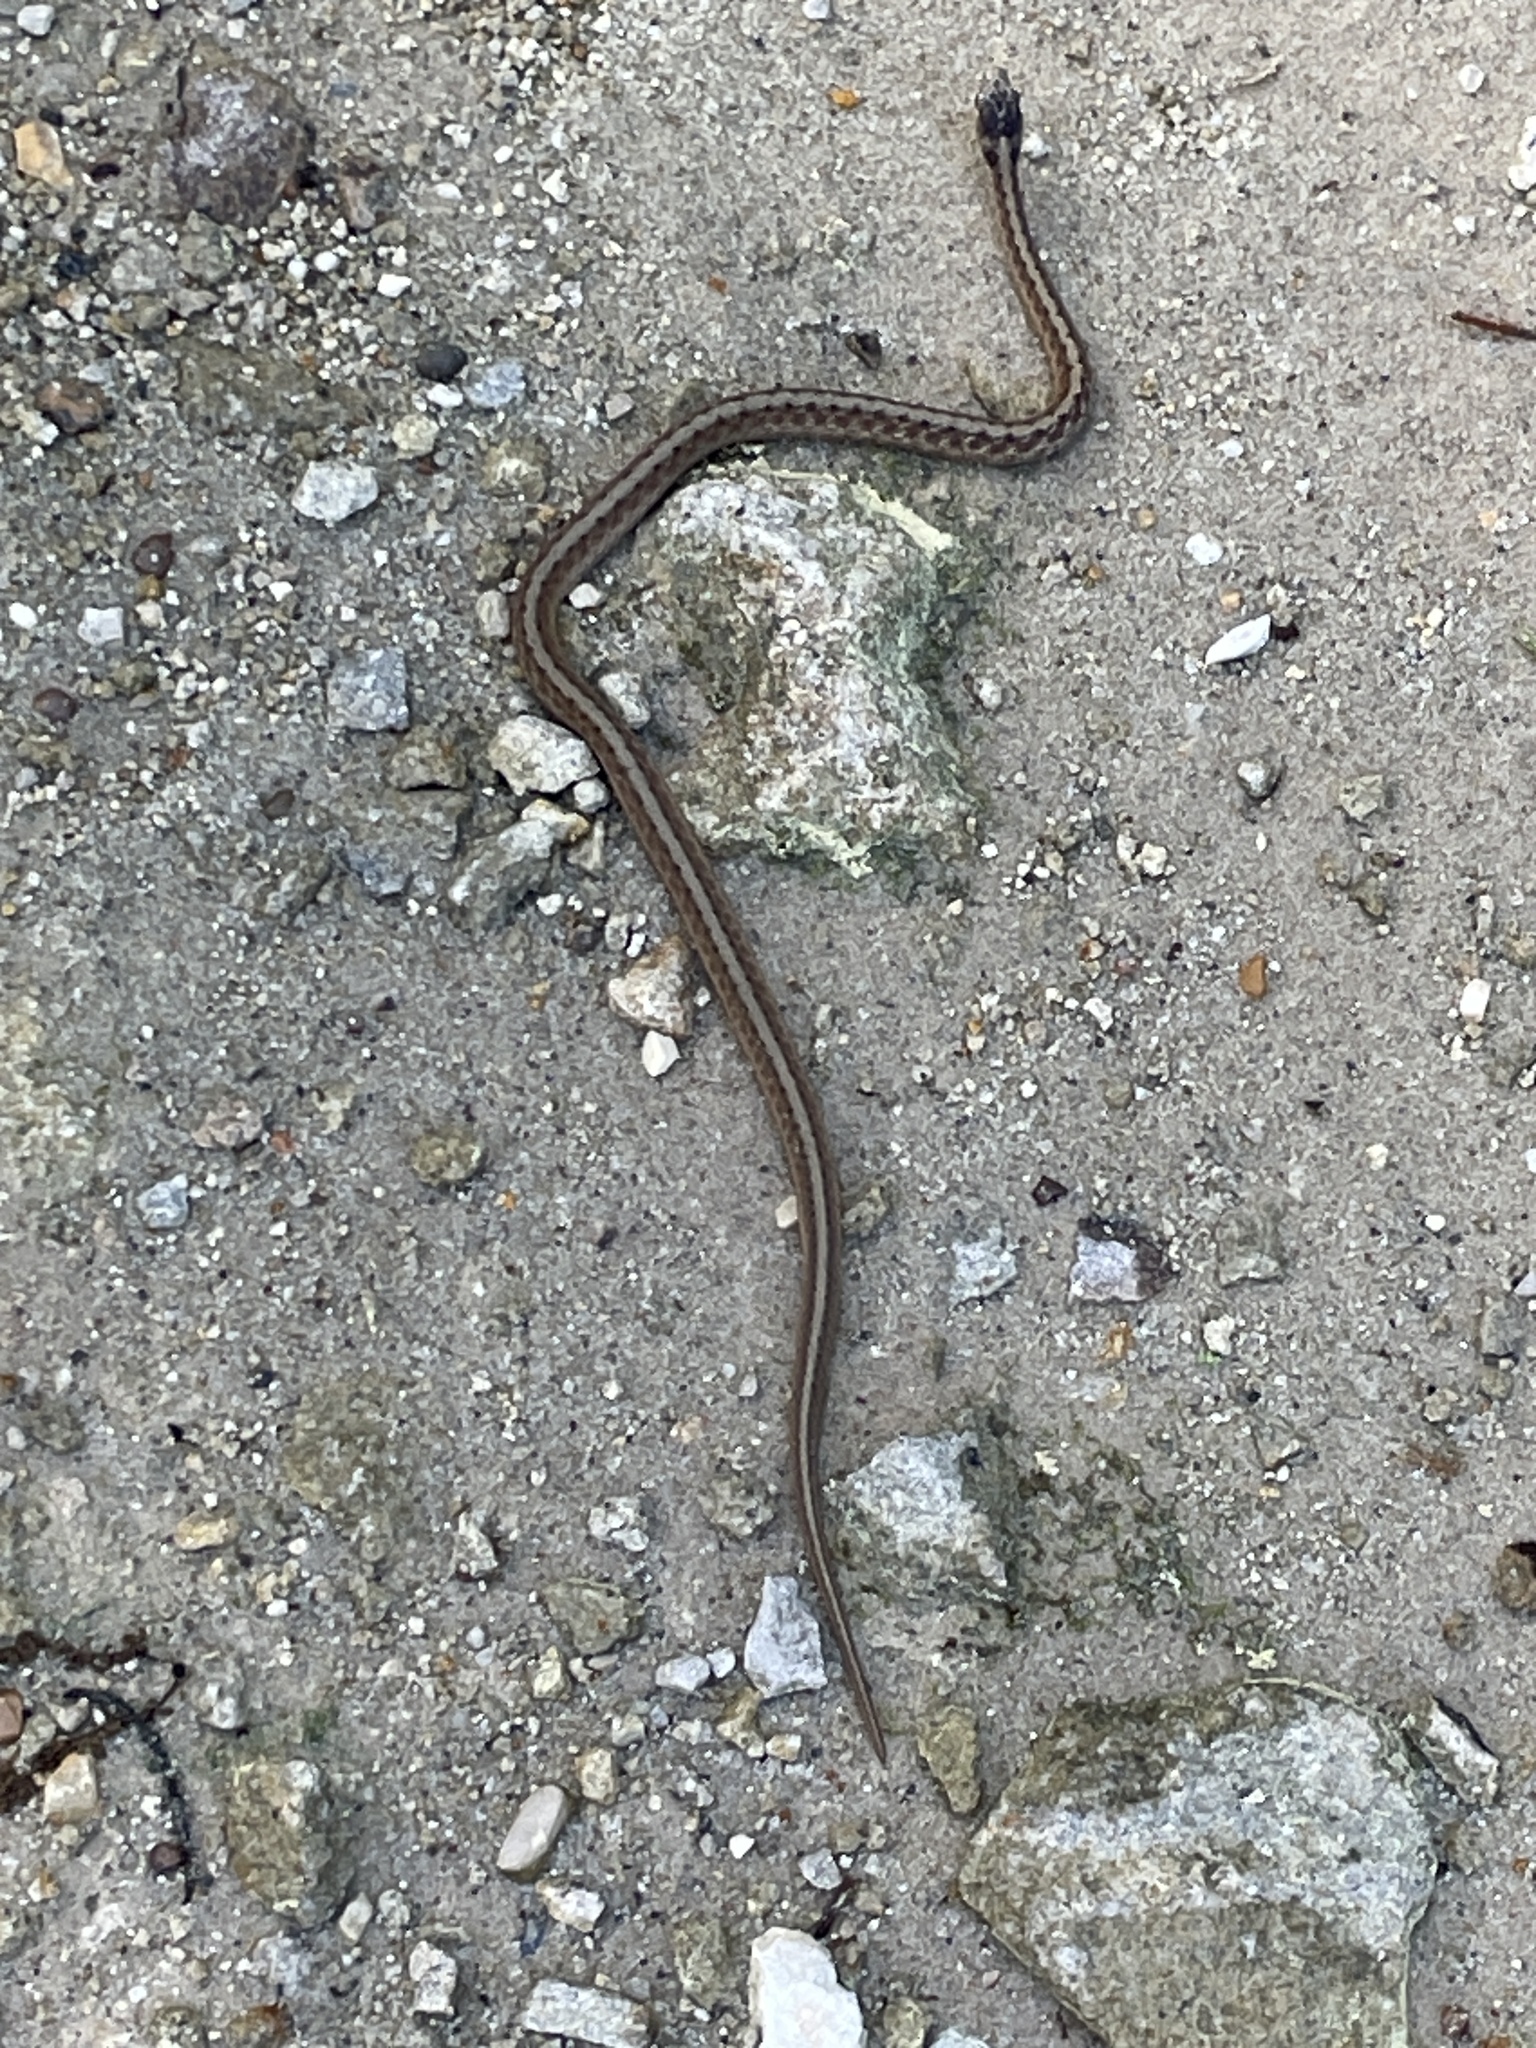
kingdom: Animalia
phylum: Chordata
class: Squamata
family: Colubridae
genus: Storeria
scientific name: Storeria dekayi
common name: (dekay’s) brown snake
